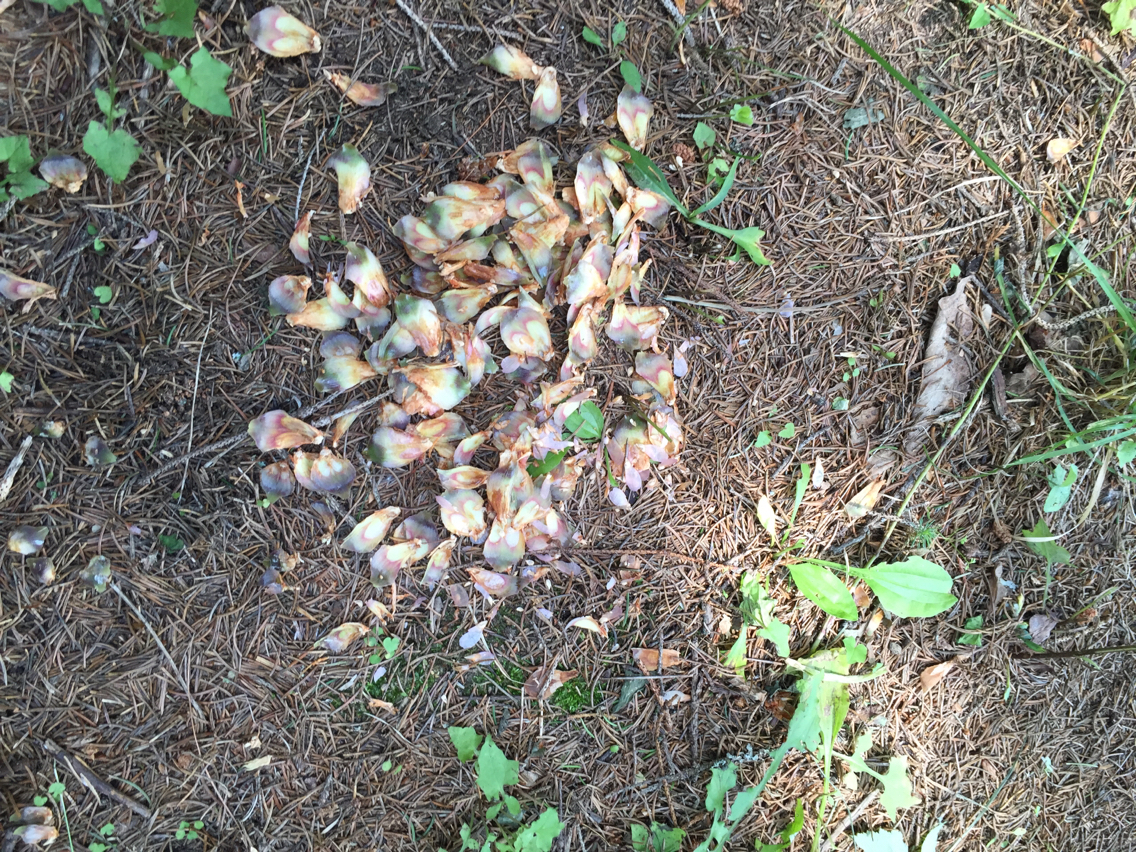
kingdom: Animalia
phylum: Chordata
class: Mammalia
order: Rodentia
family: Sciuridae
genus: Tamiasciurus
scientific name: Tamiasciurus hudsonicus
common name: Red squirrel
